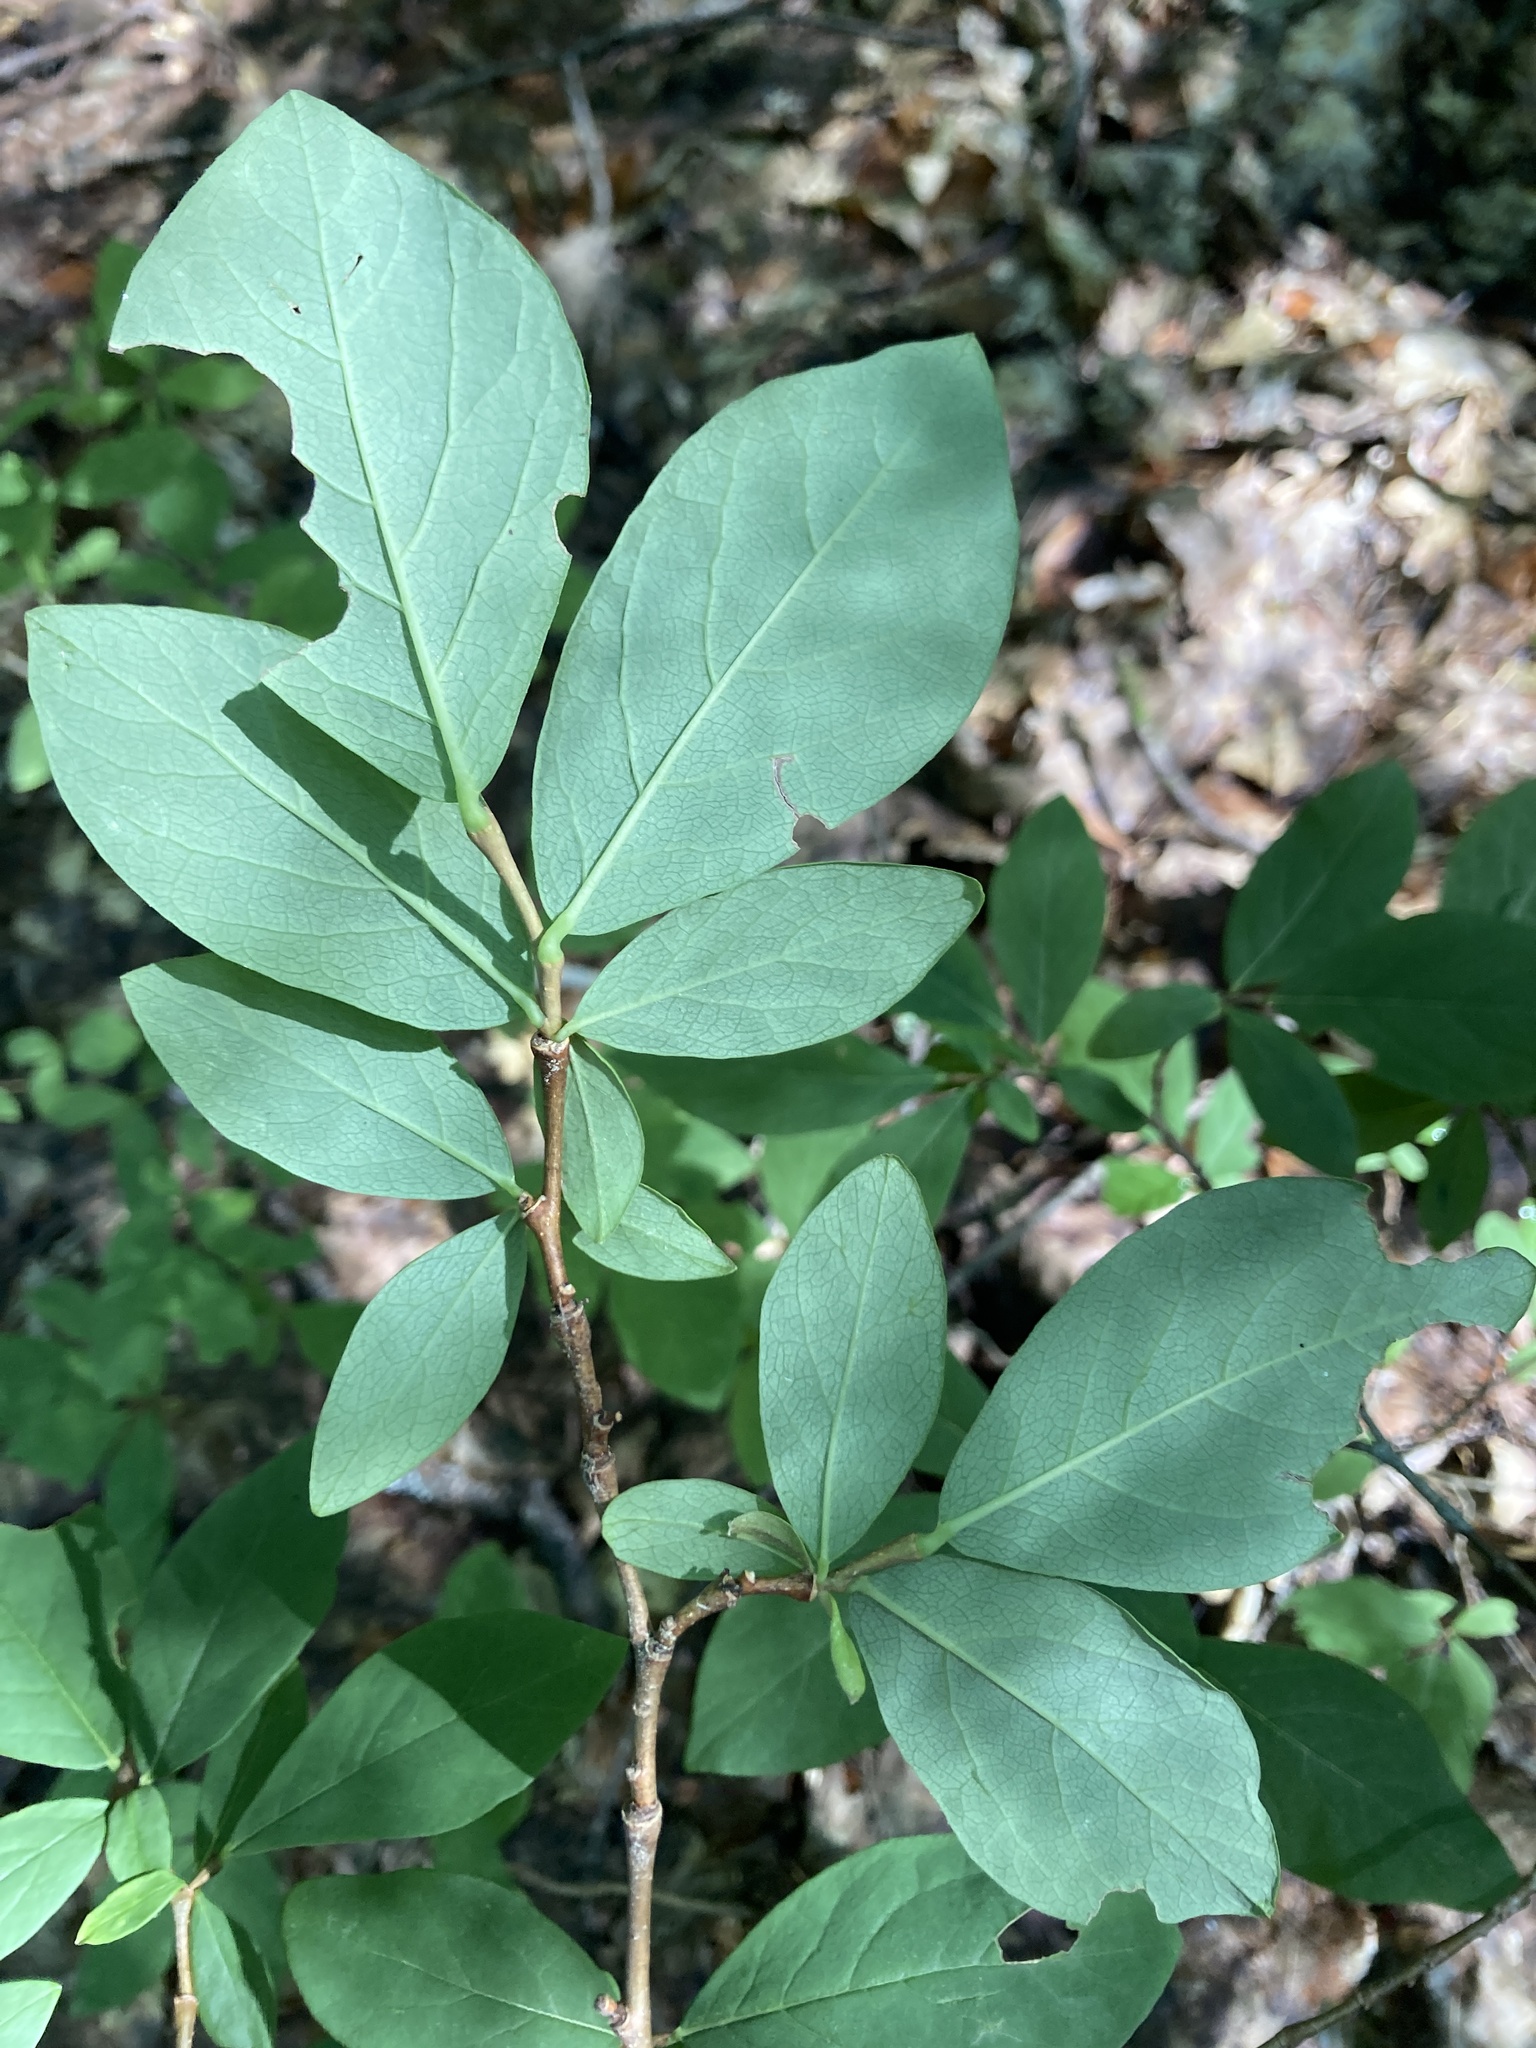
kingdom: Plantae
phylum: Tracheophyta
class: Magnoliopsida
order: Malvales
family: Thymelaeaceae
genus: Dirca
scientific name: Dirca palustris
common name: Leatherwood
